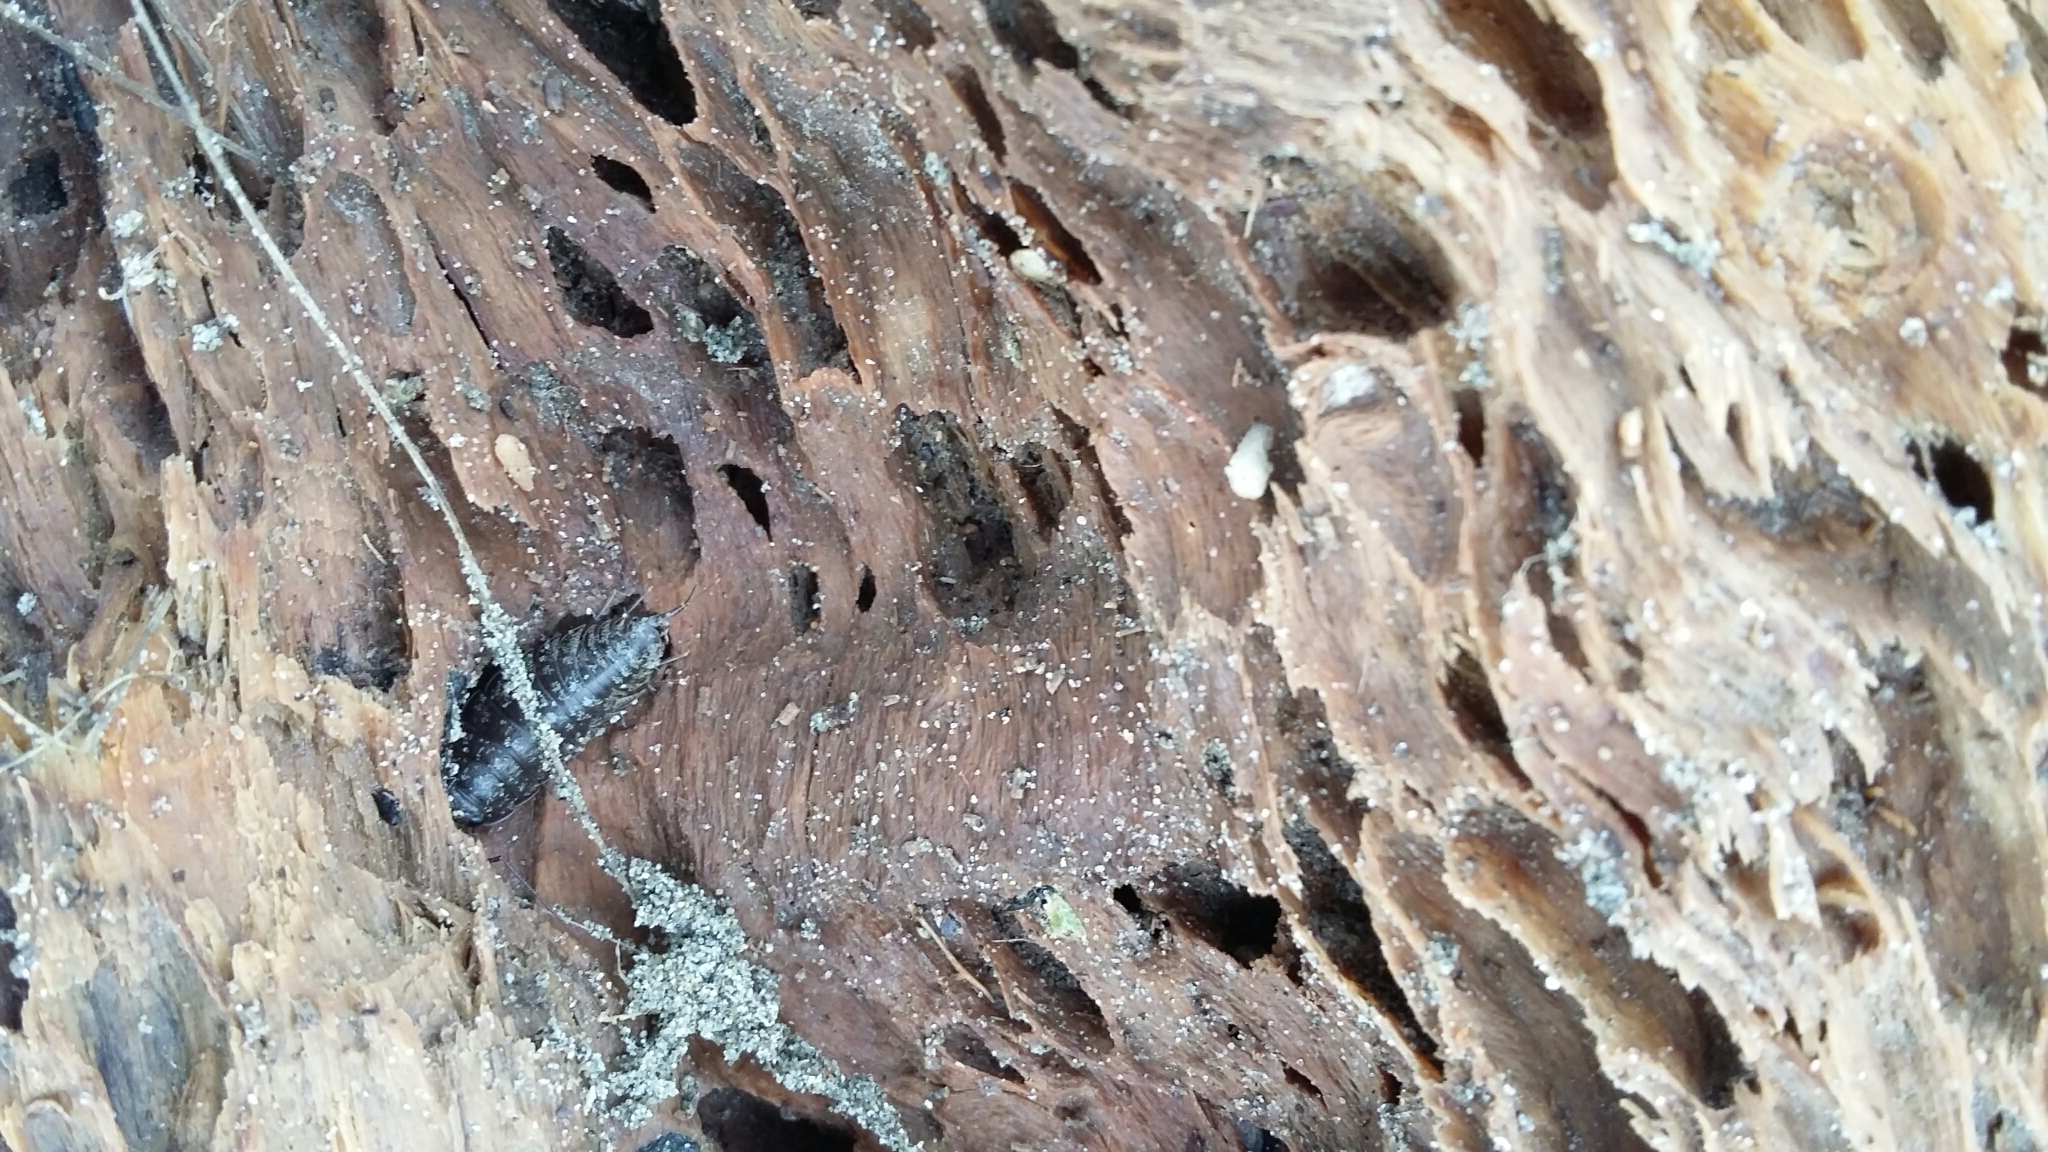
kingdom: Animalia
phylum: Arthropoda
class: Malacostraca
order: Isopoda
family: Ligiidae
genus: Ligia
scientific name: Ligia novizealandiae
